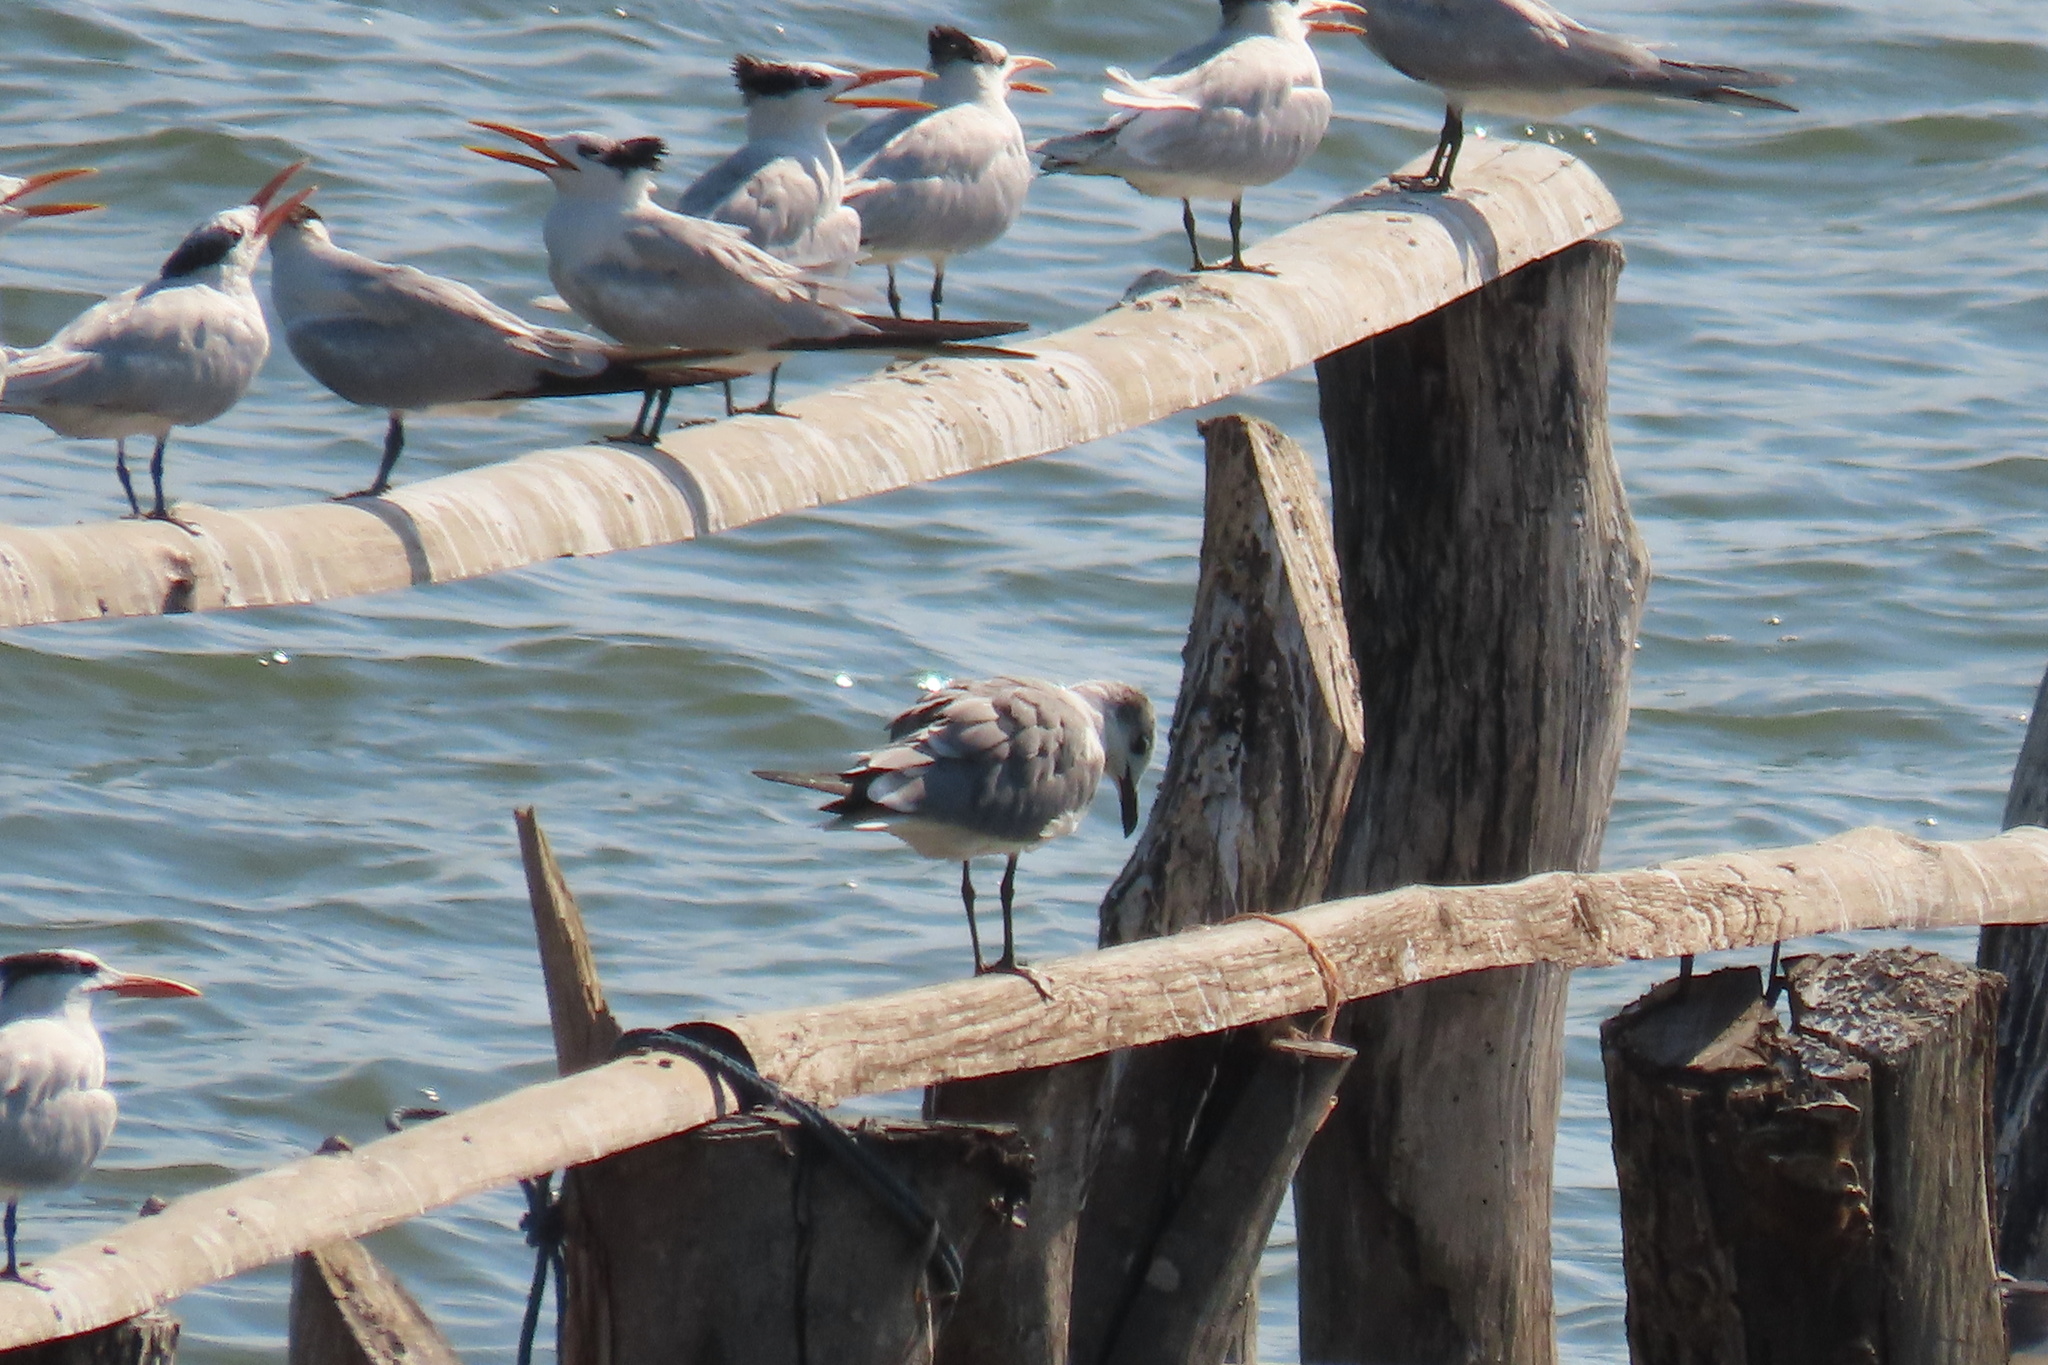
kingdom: Animalia
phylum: Chordata
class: Aves
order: Charadriiformes
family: Laridae
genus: Leucophaeus
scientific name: Leucophaeus atricilla
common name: Laughing gull
